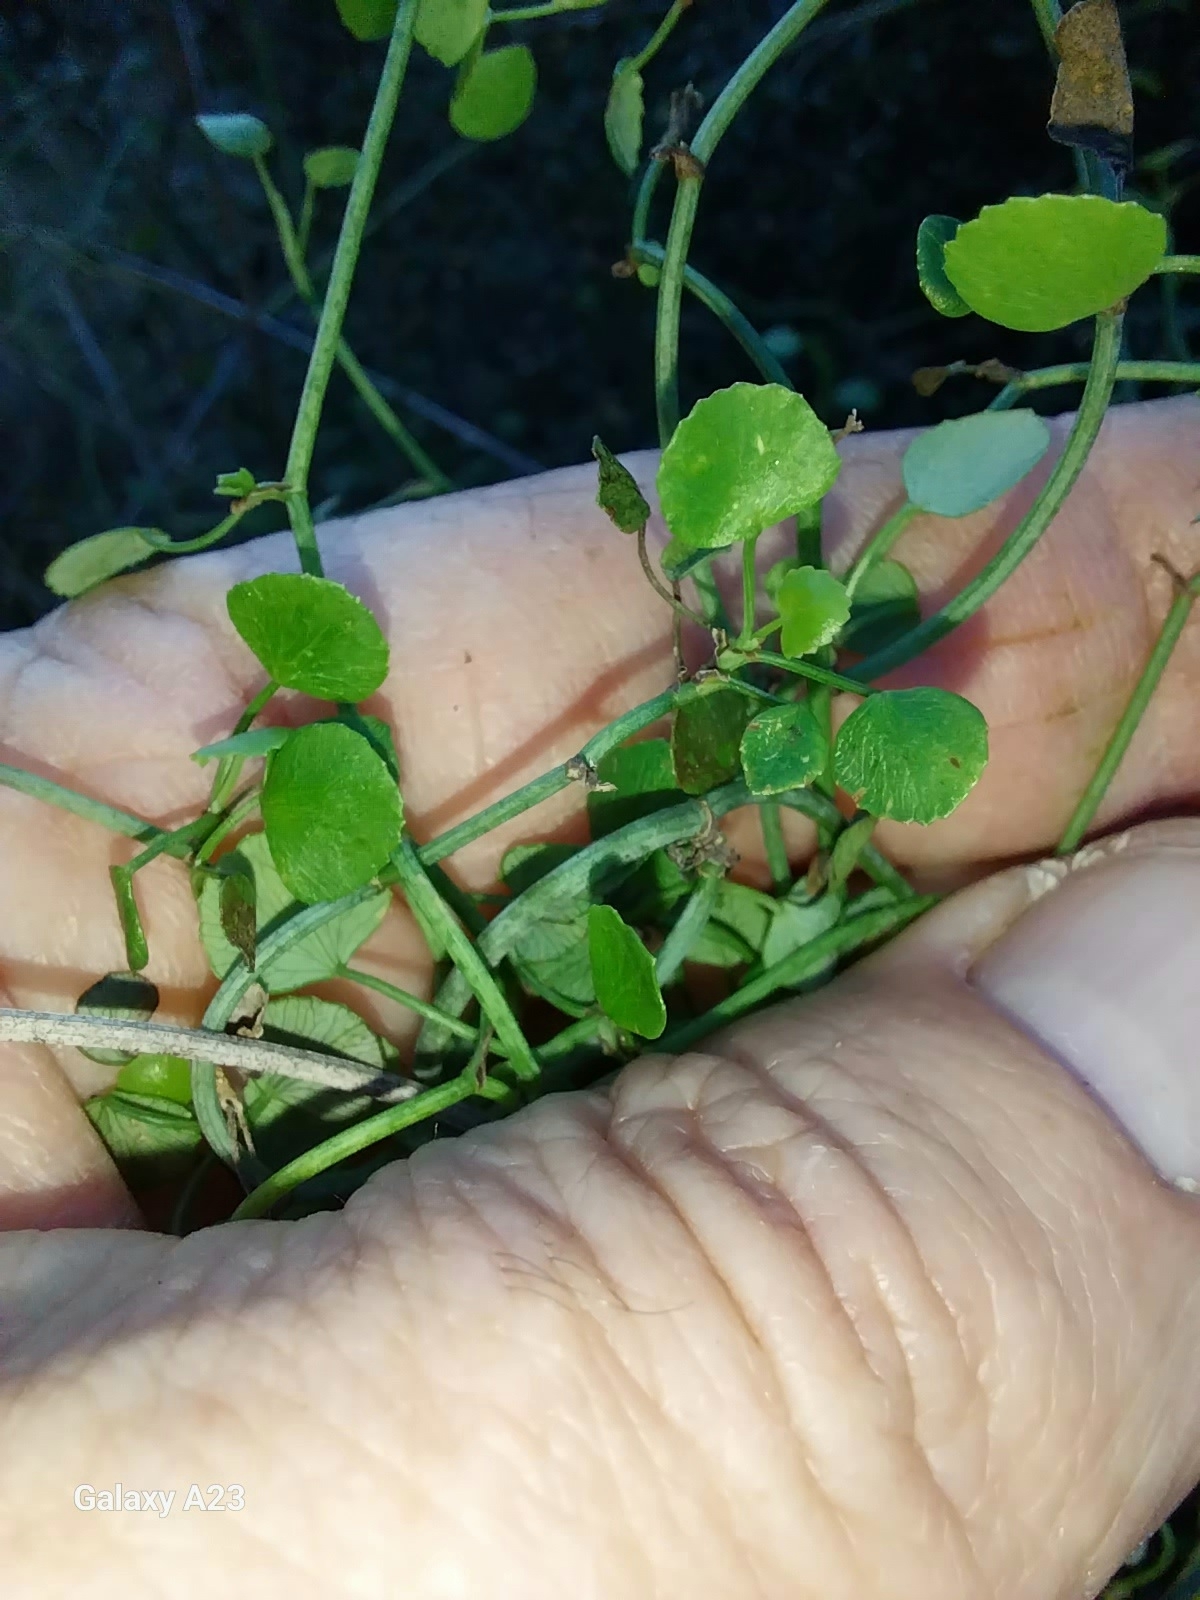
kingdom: Plantae
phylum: Tracheophyta
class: Magnoliopsida
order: Apiales
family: Apiaceae
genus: Scandia
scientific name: Scandia geniculata
